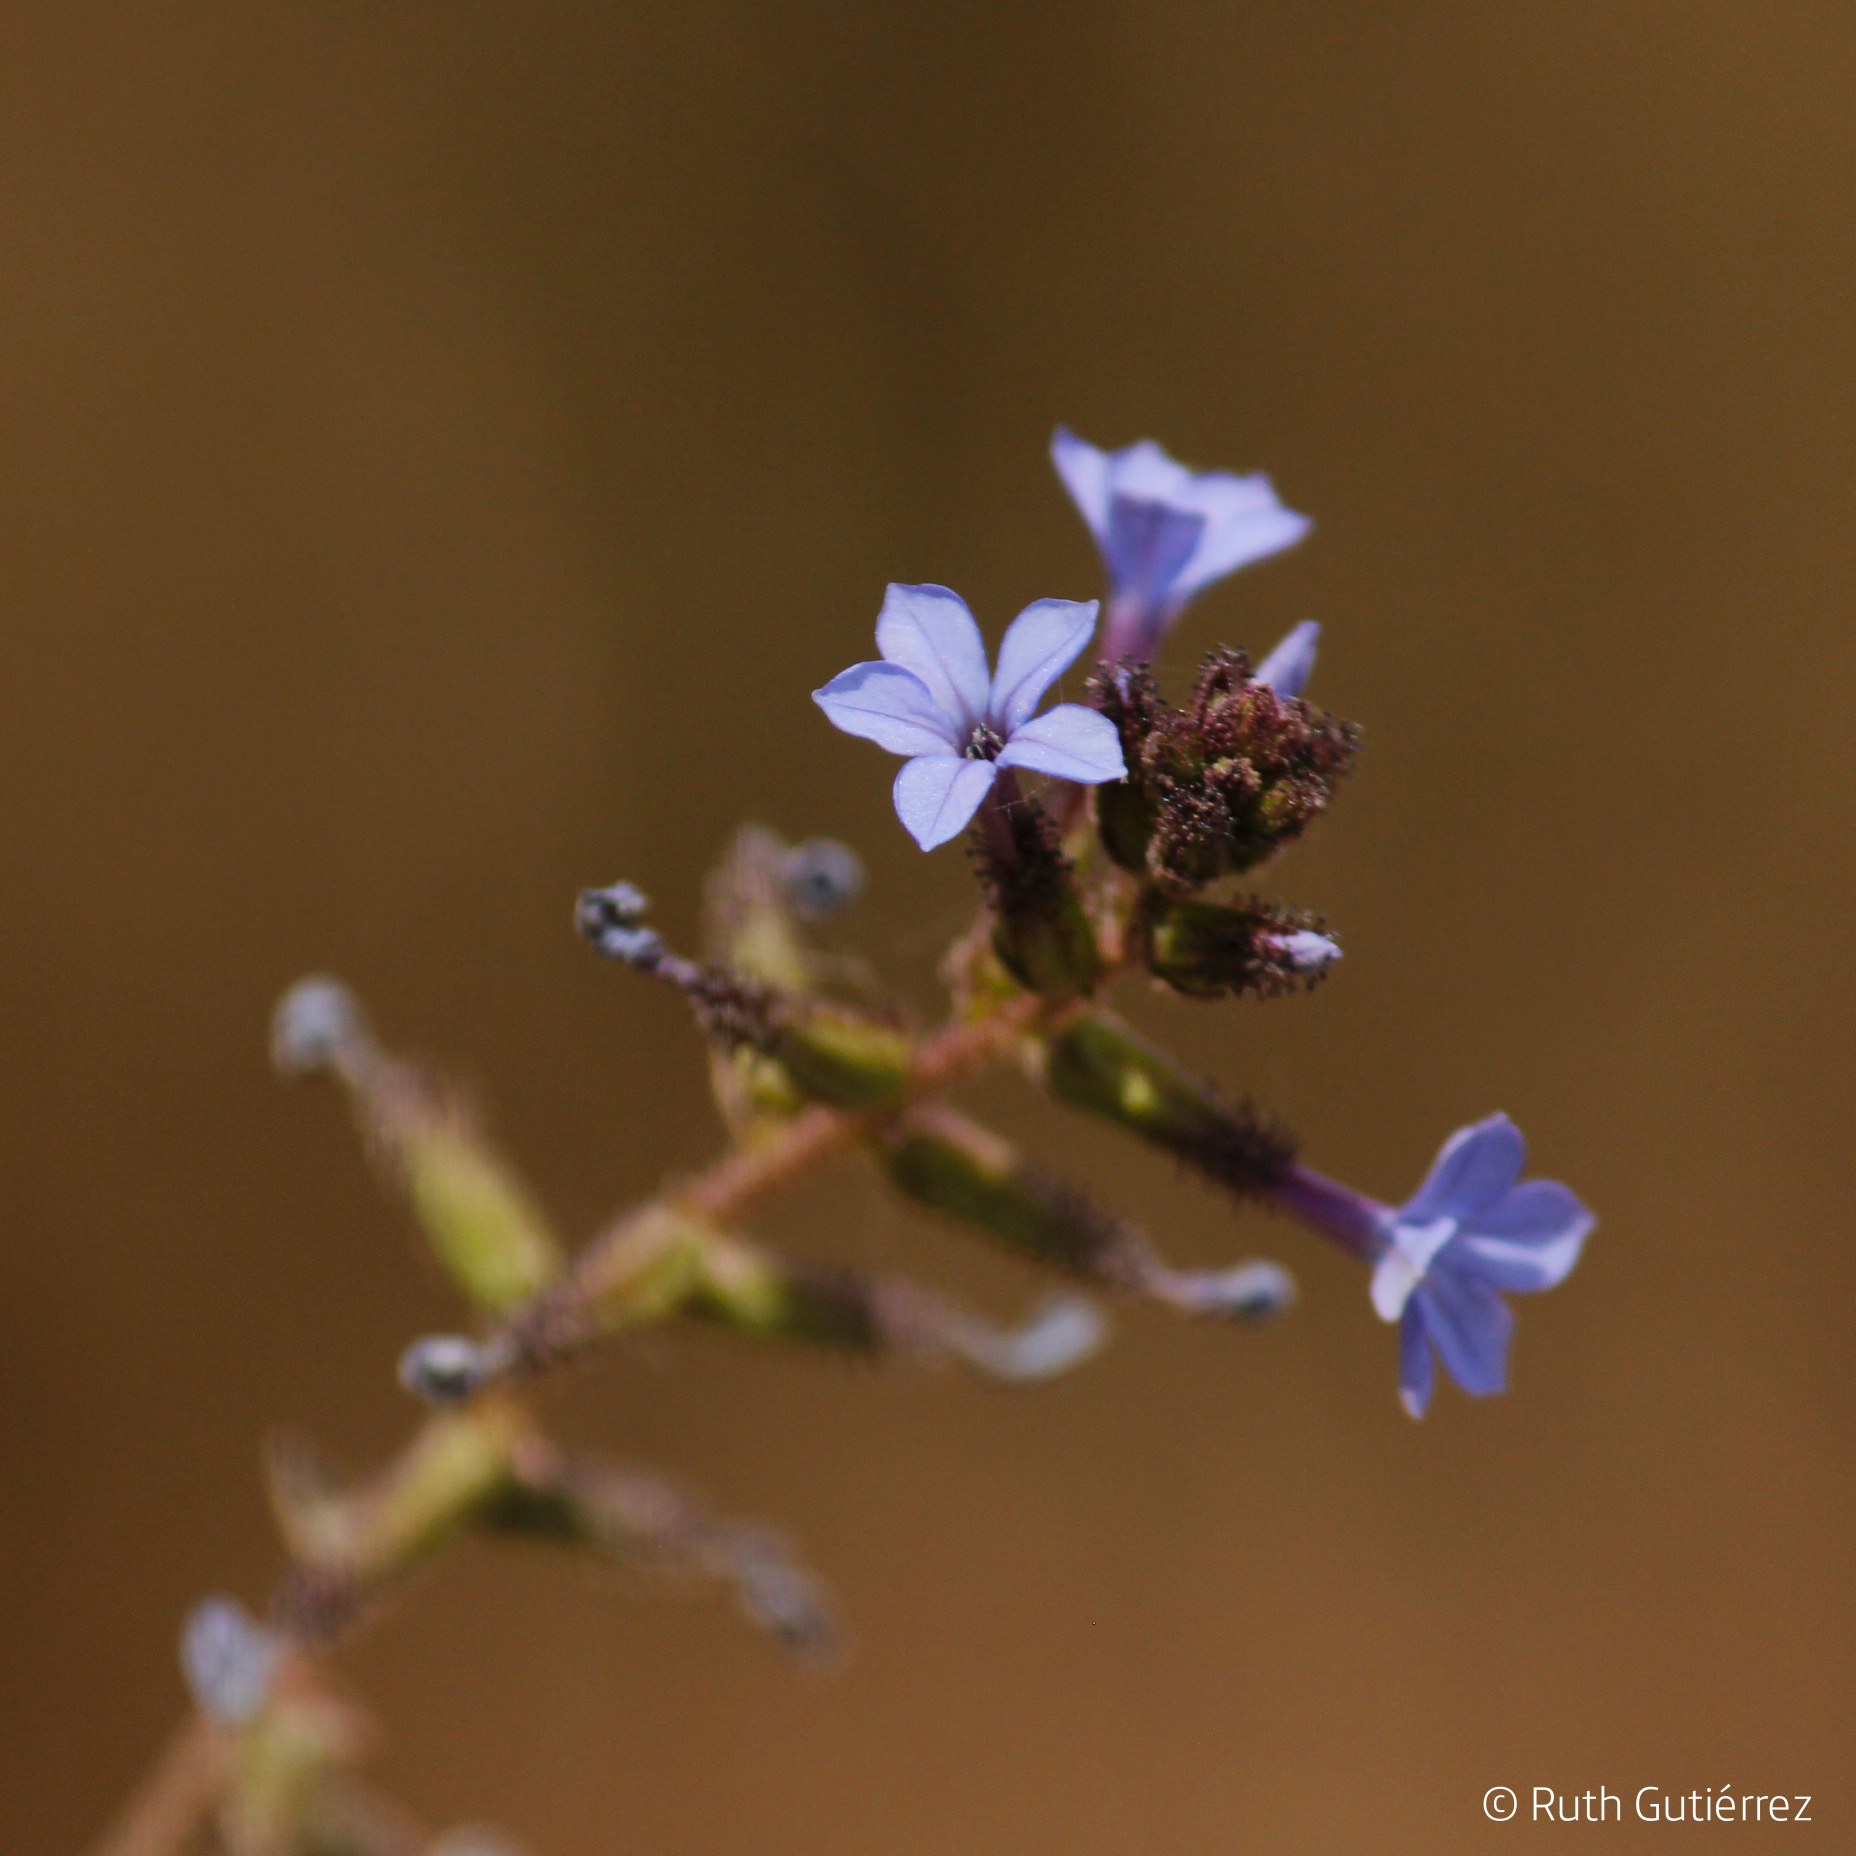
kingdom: Plantae
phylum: Tracheophyta
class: Magnoliopsida
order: Caryophyllales
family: Plumbaginaceae
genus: Plumbago
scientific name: Plumbago caerulea
